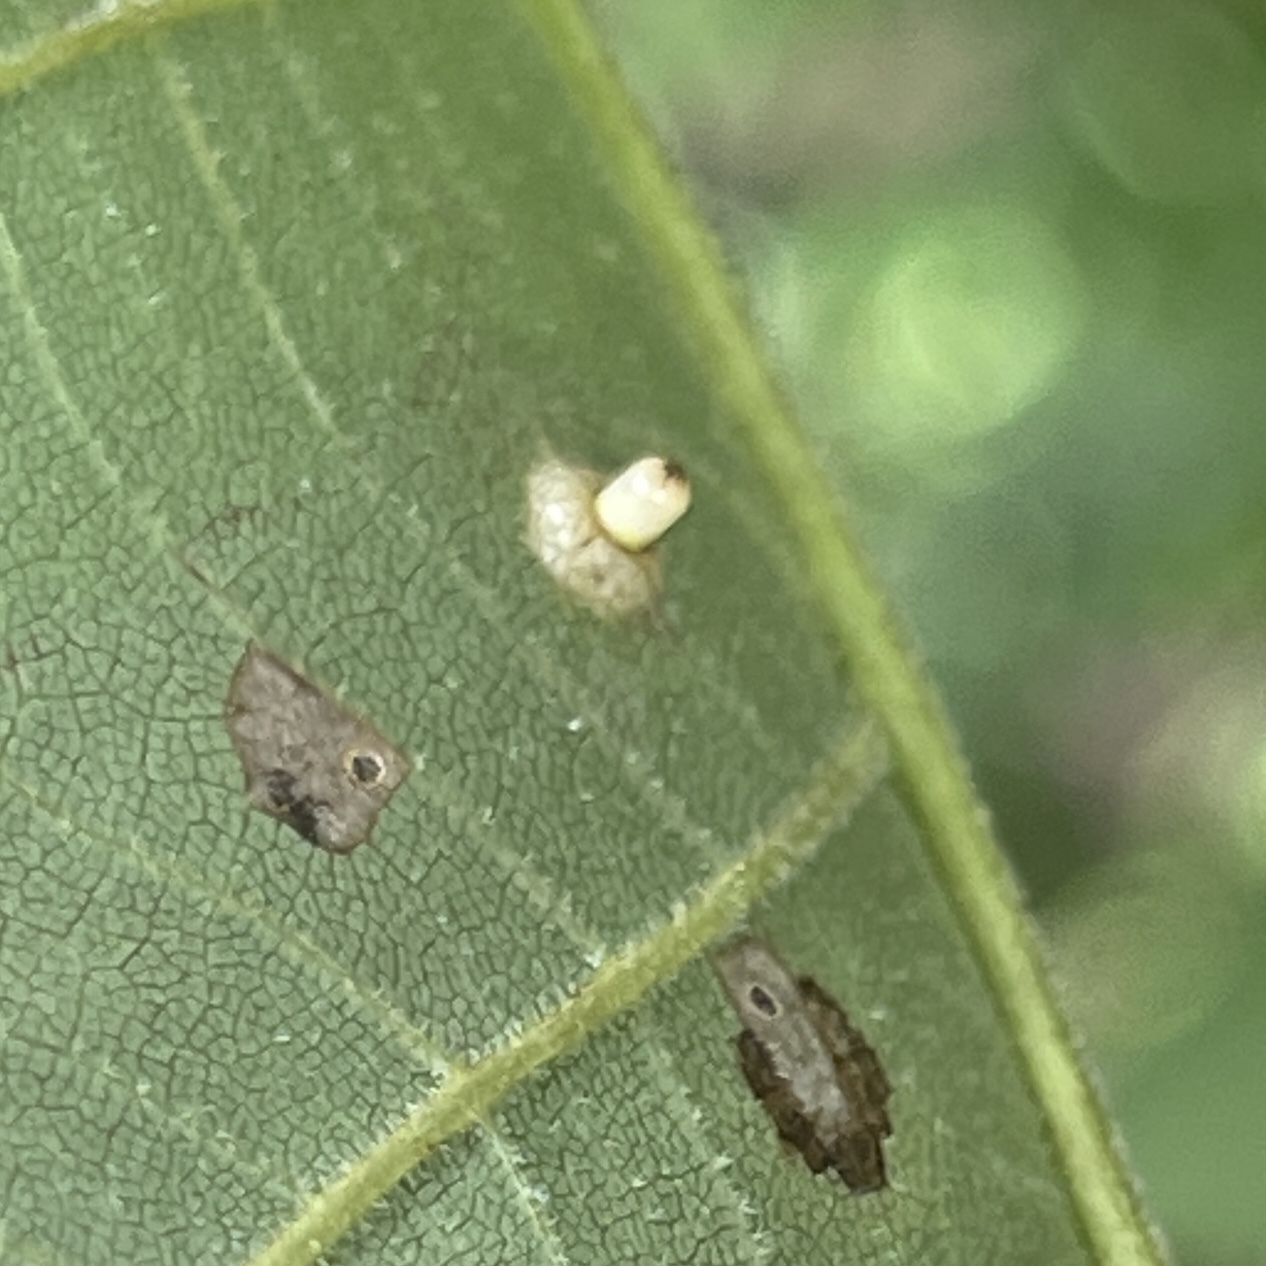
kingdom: Animalia
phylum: Arthropoda
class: Insecta
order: Diptera
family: Cecidomyiidae
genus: Caryomyia
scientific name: Caryomyia tubicola
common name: Hickory bullet gall midge
